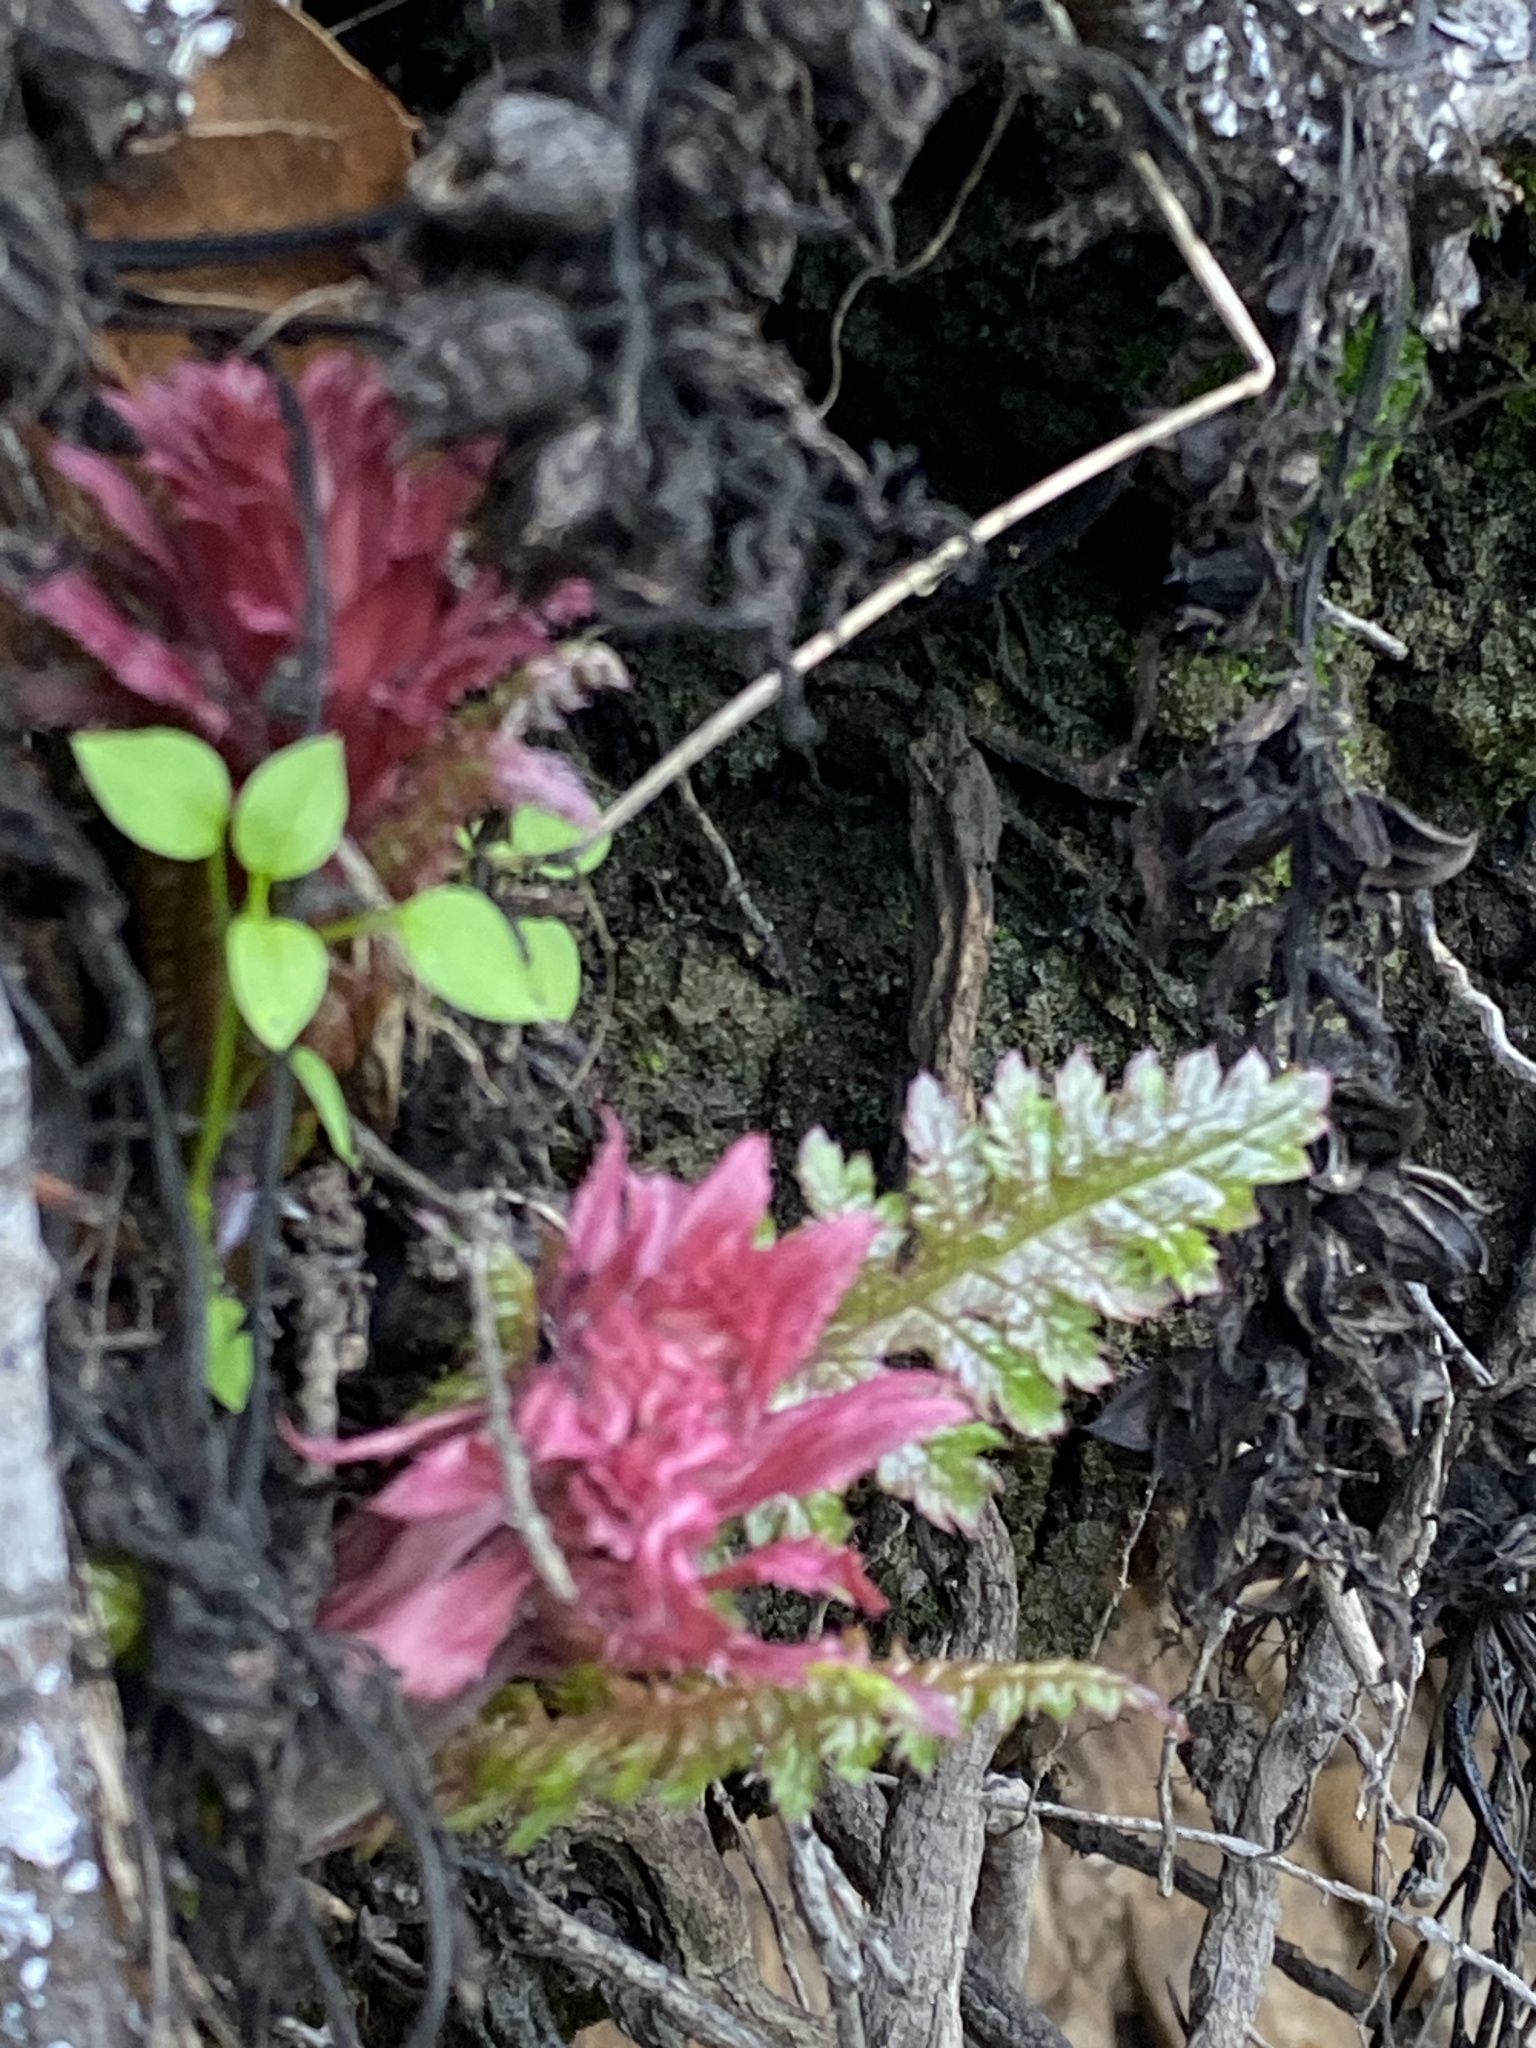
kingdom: Plantae
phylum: Tracheophyta
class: Magnoliopsida
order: Lamiales
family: Orobanchaceae
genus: Pedicularis
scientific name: Pedicularis densiflora
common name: Indian warrior
